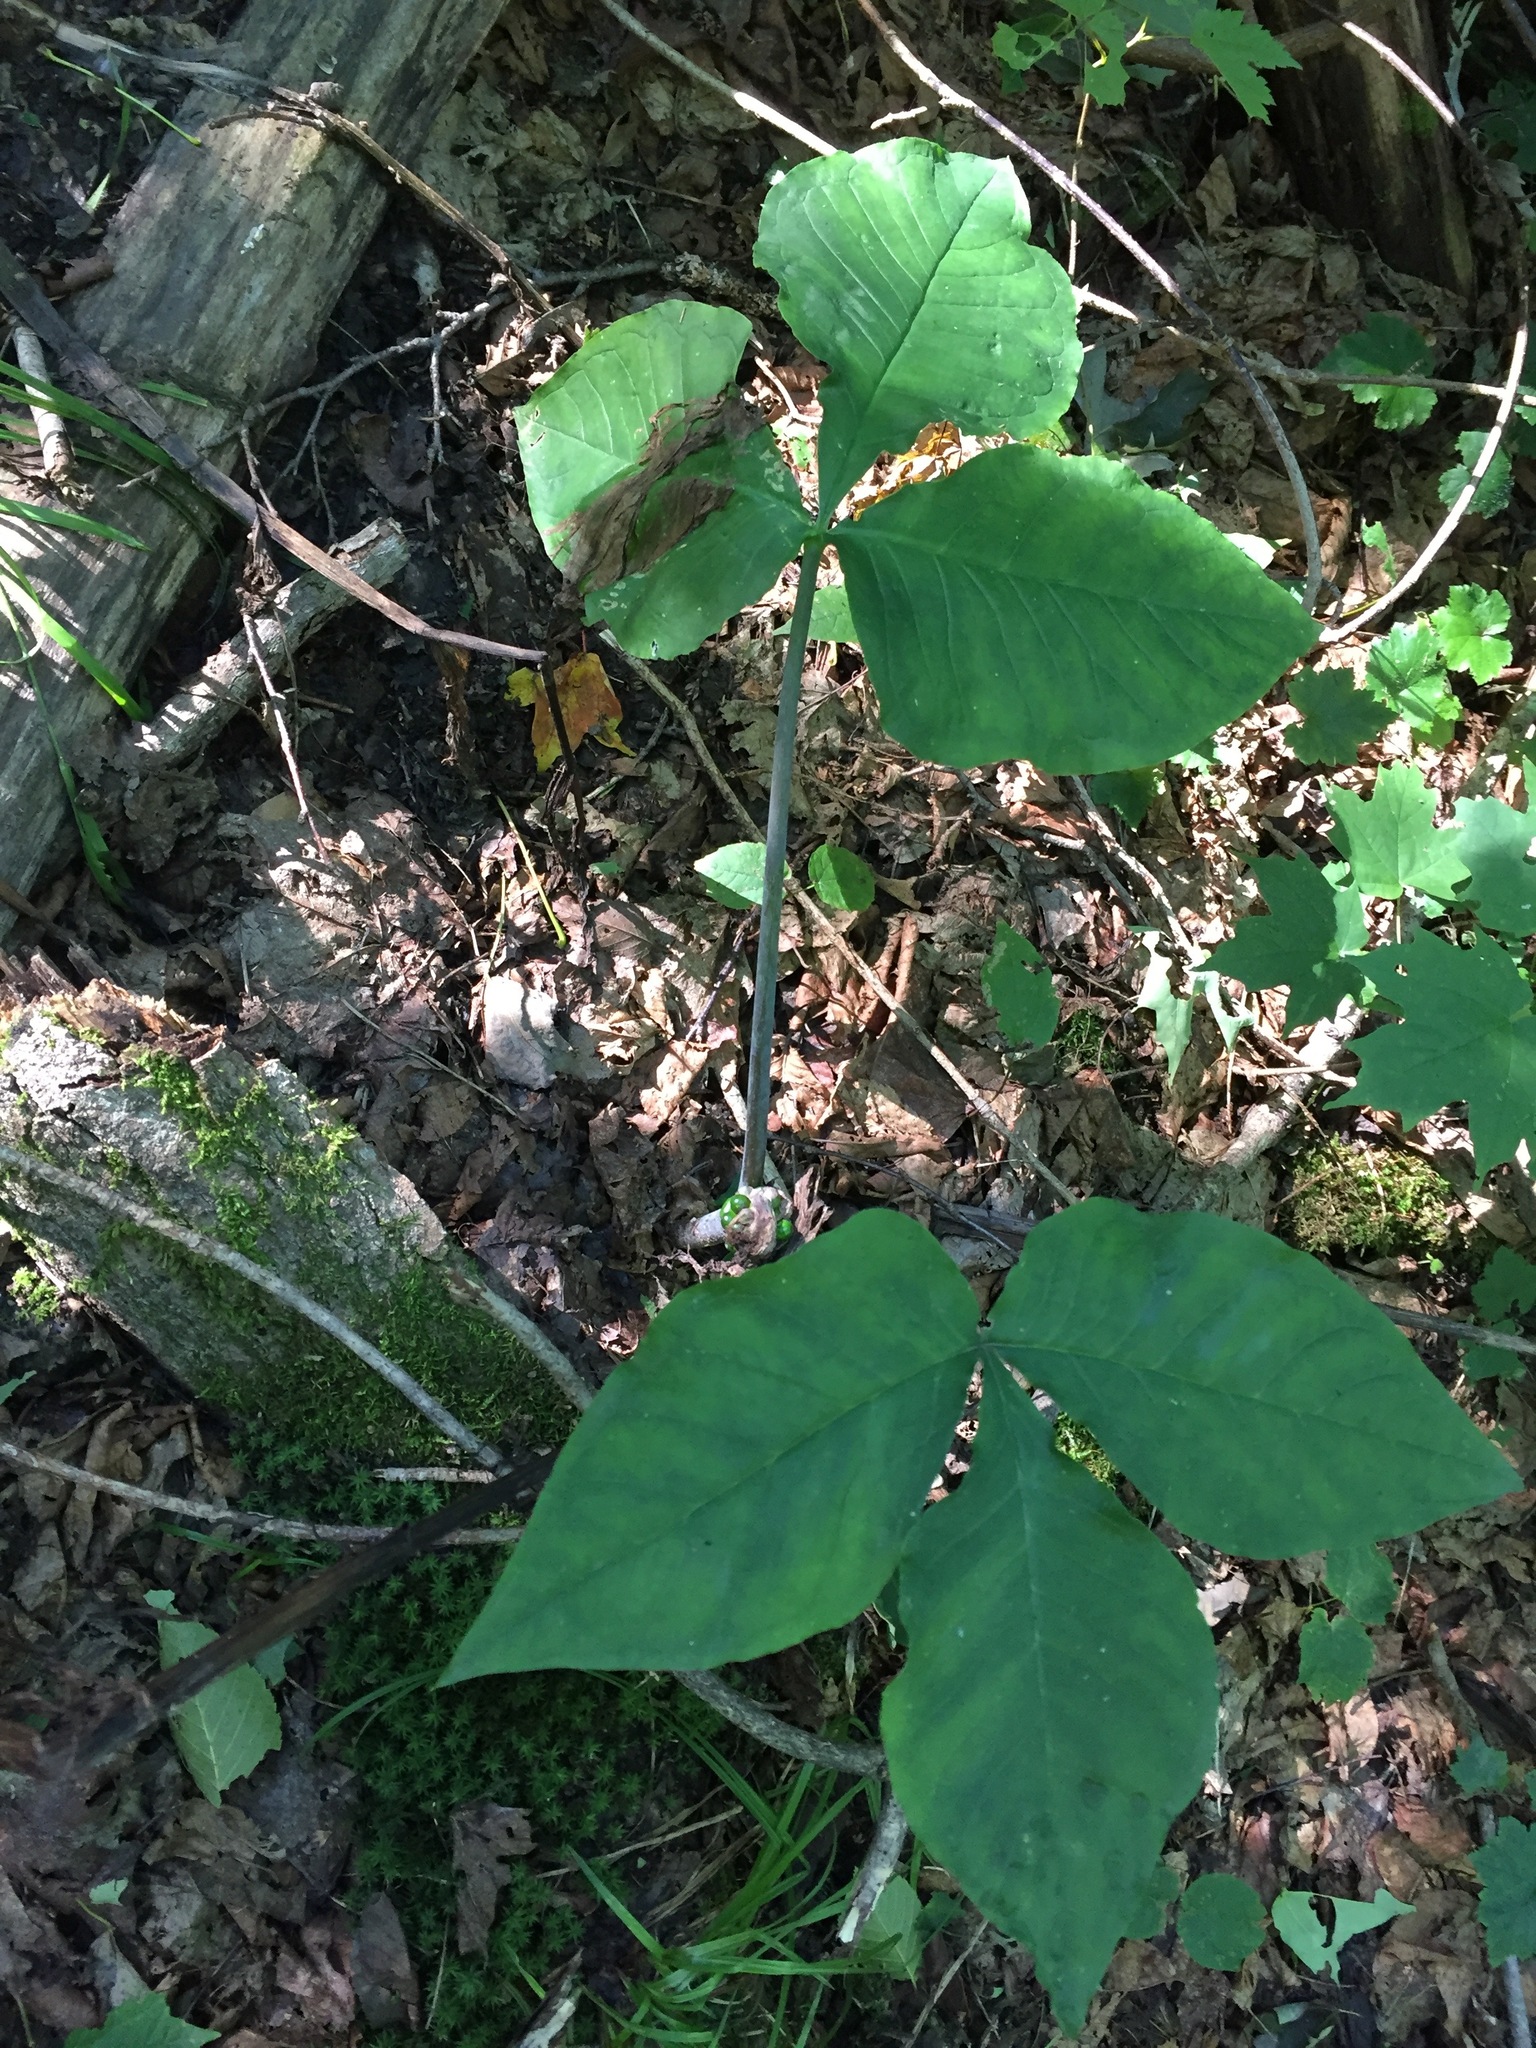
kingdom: Plantae
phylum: Tracheophyta
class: Liliopsida
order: Alismatales
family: Araceae
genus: Arisaema
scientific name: Arisaema triphyllum
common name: Jack-in-the-pulpit
